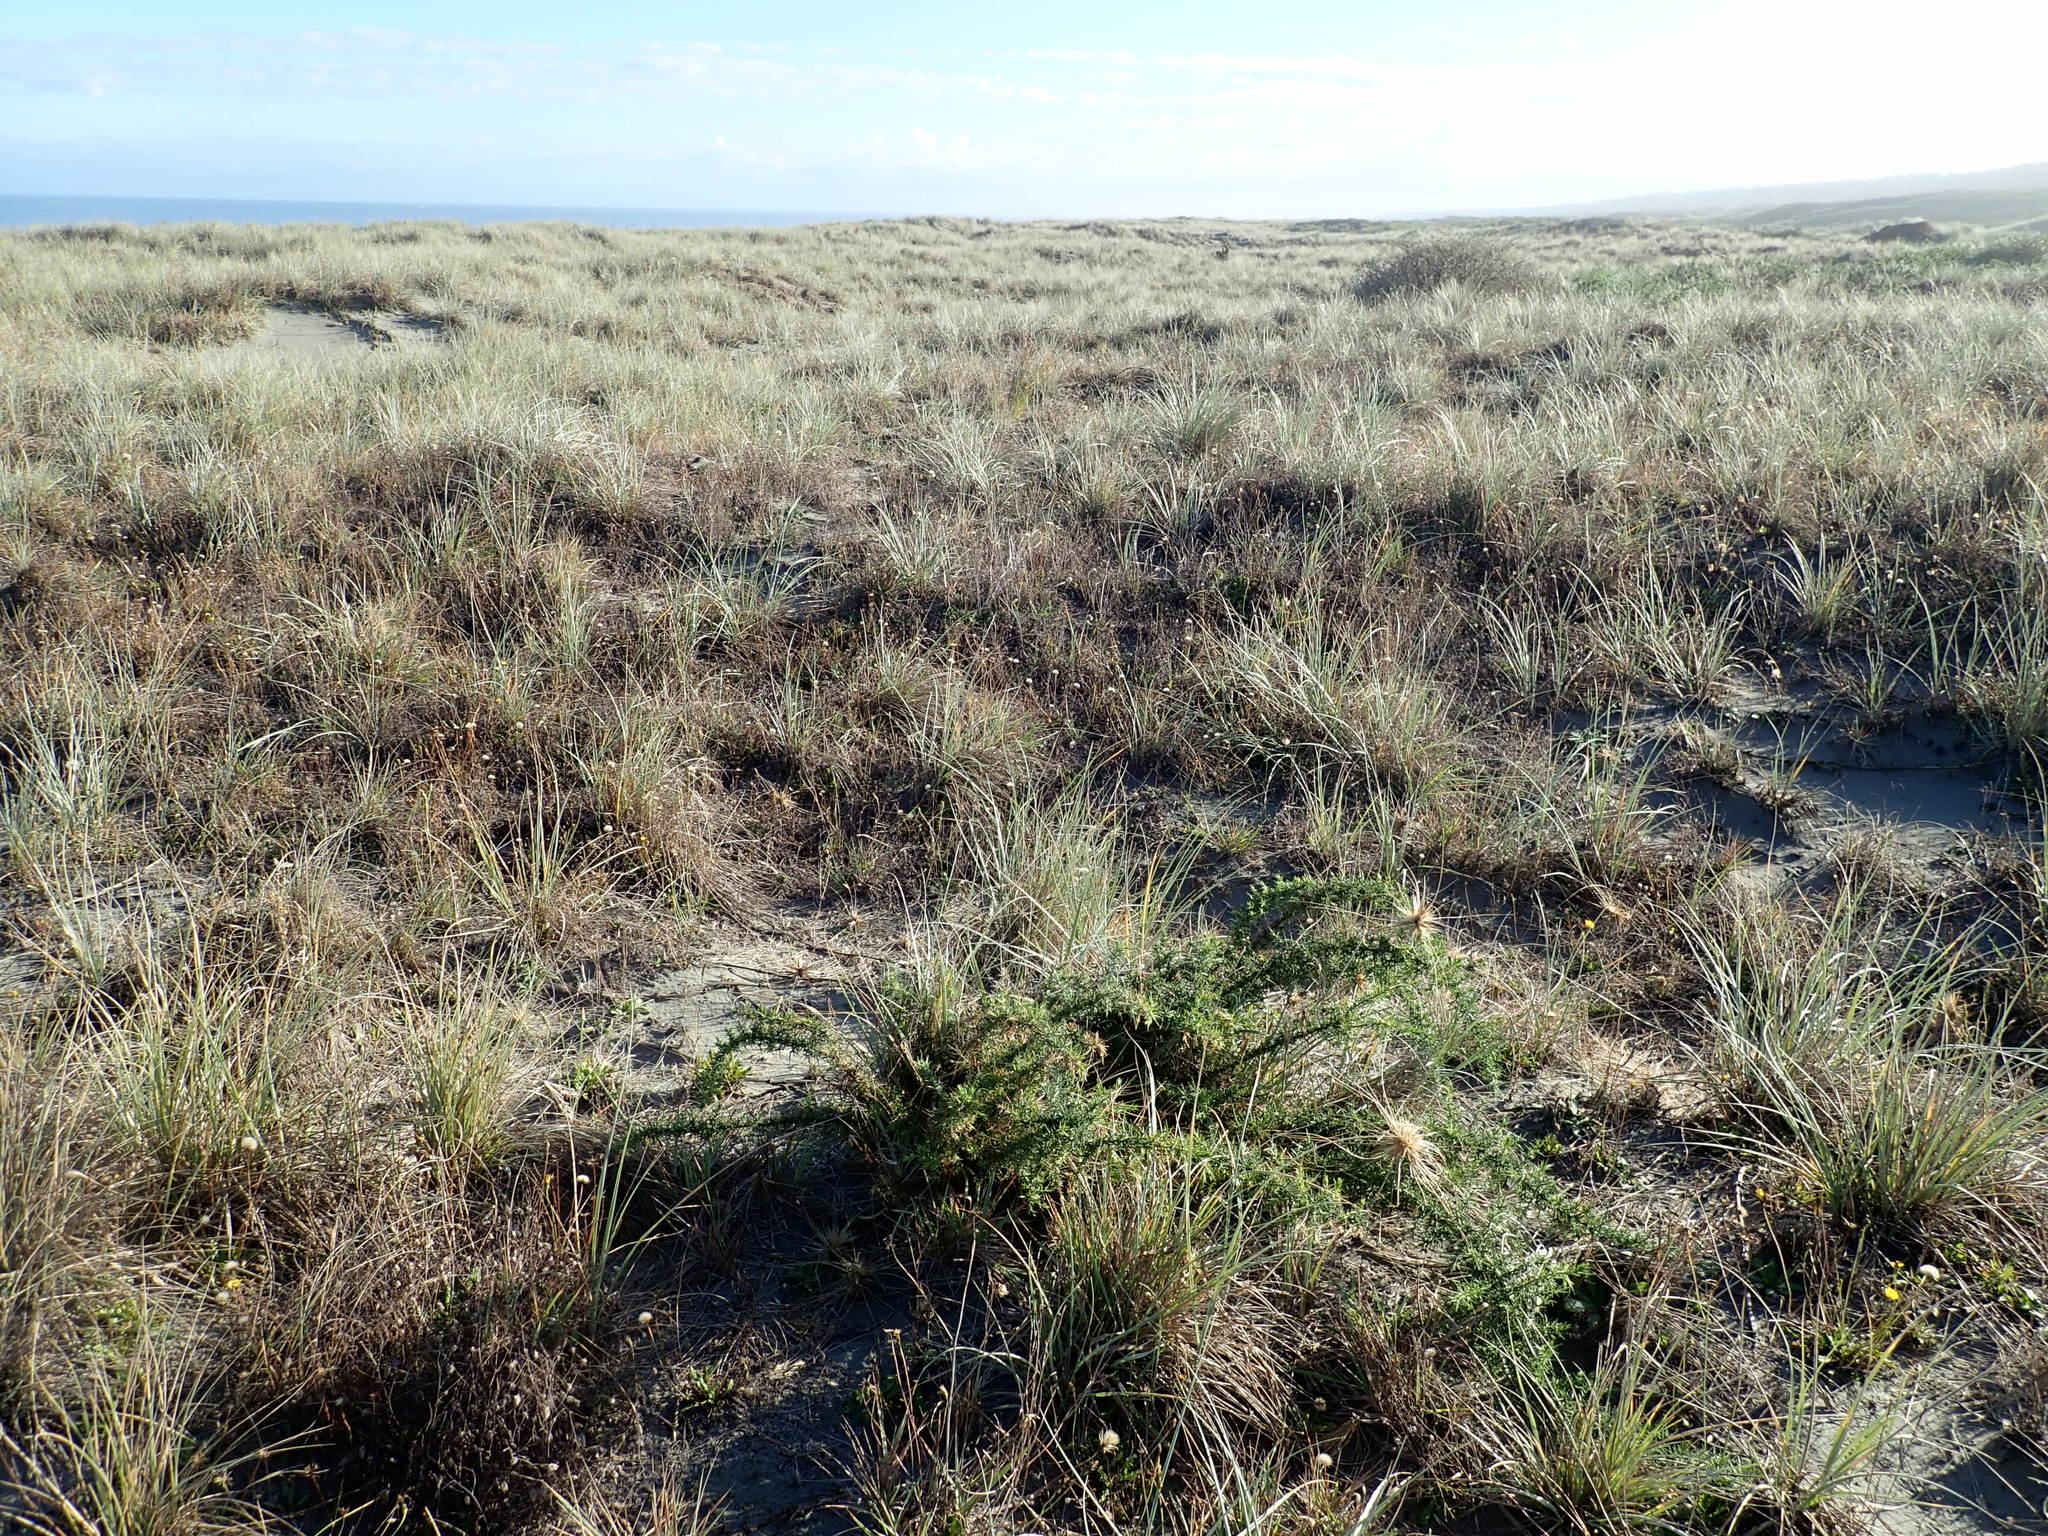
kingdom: Plantae
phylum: Tracheophyta
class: Magnoliopsida
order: Fabales
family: Fabaceae
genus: Ulex
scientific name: Ulex europaeus
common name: Common gorse
